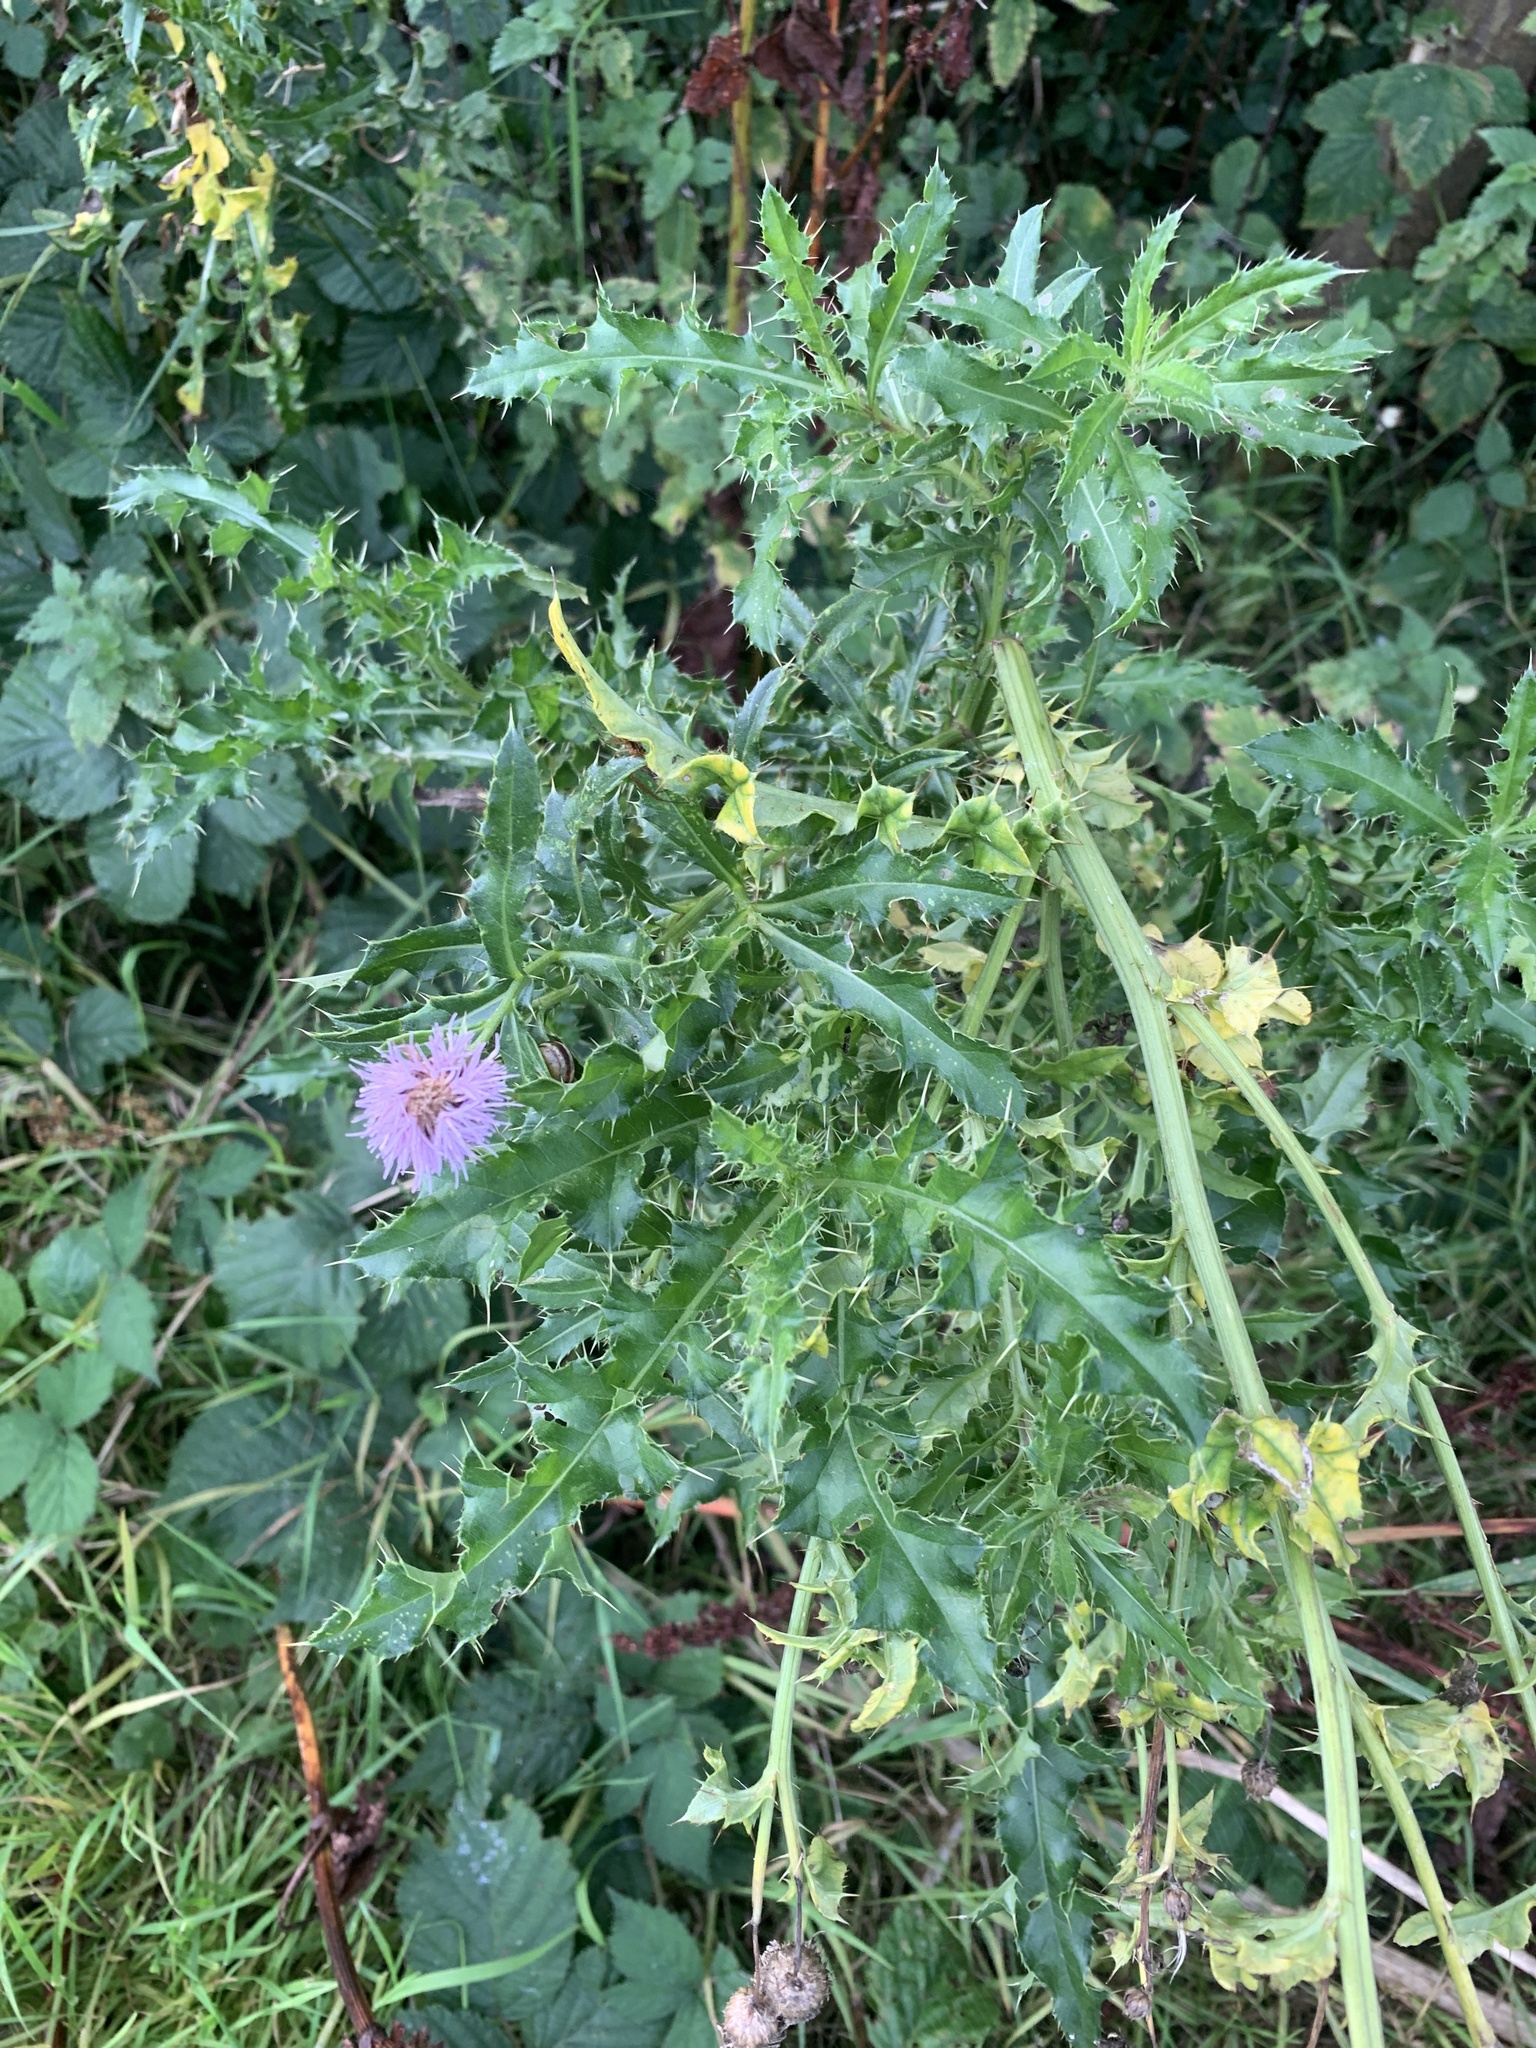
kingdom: Plantae
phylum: Tracheophyta
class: Magnoliopsida
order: Asterales
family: Asteraceae
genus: Cirsium
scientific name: Cirsium arvense
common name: Creeping thistle
